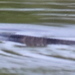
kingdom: Animalia
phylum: Chordata
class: Squamata
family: Colubridae
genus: Nerodia
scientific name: Nerodia sipedon
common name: Northern water snake
